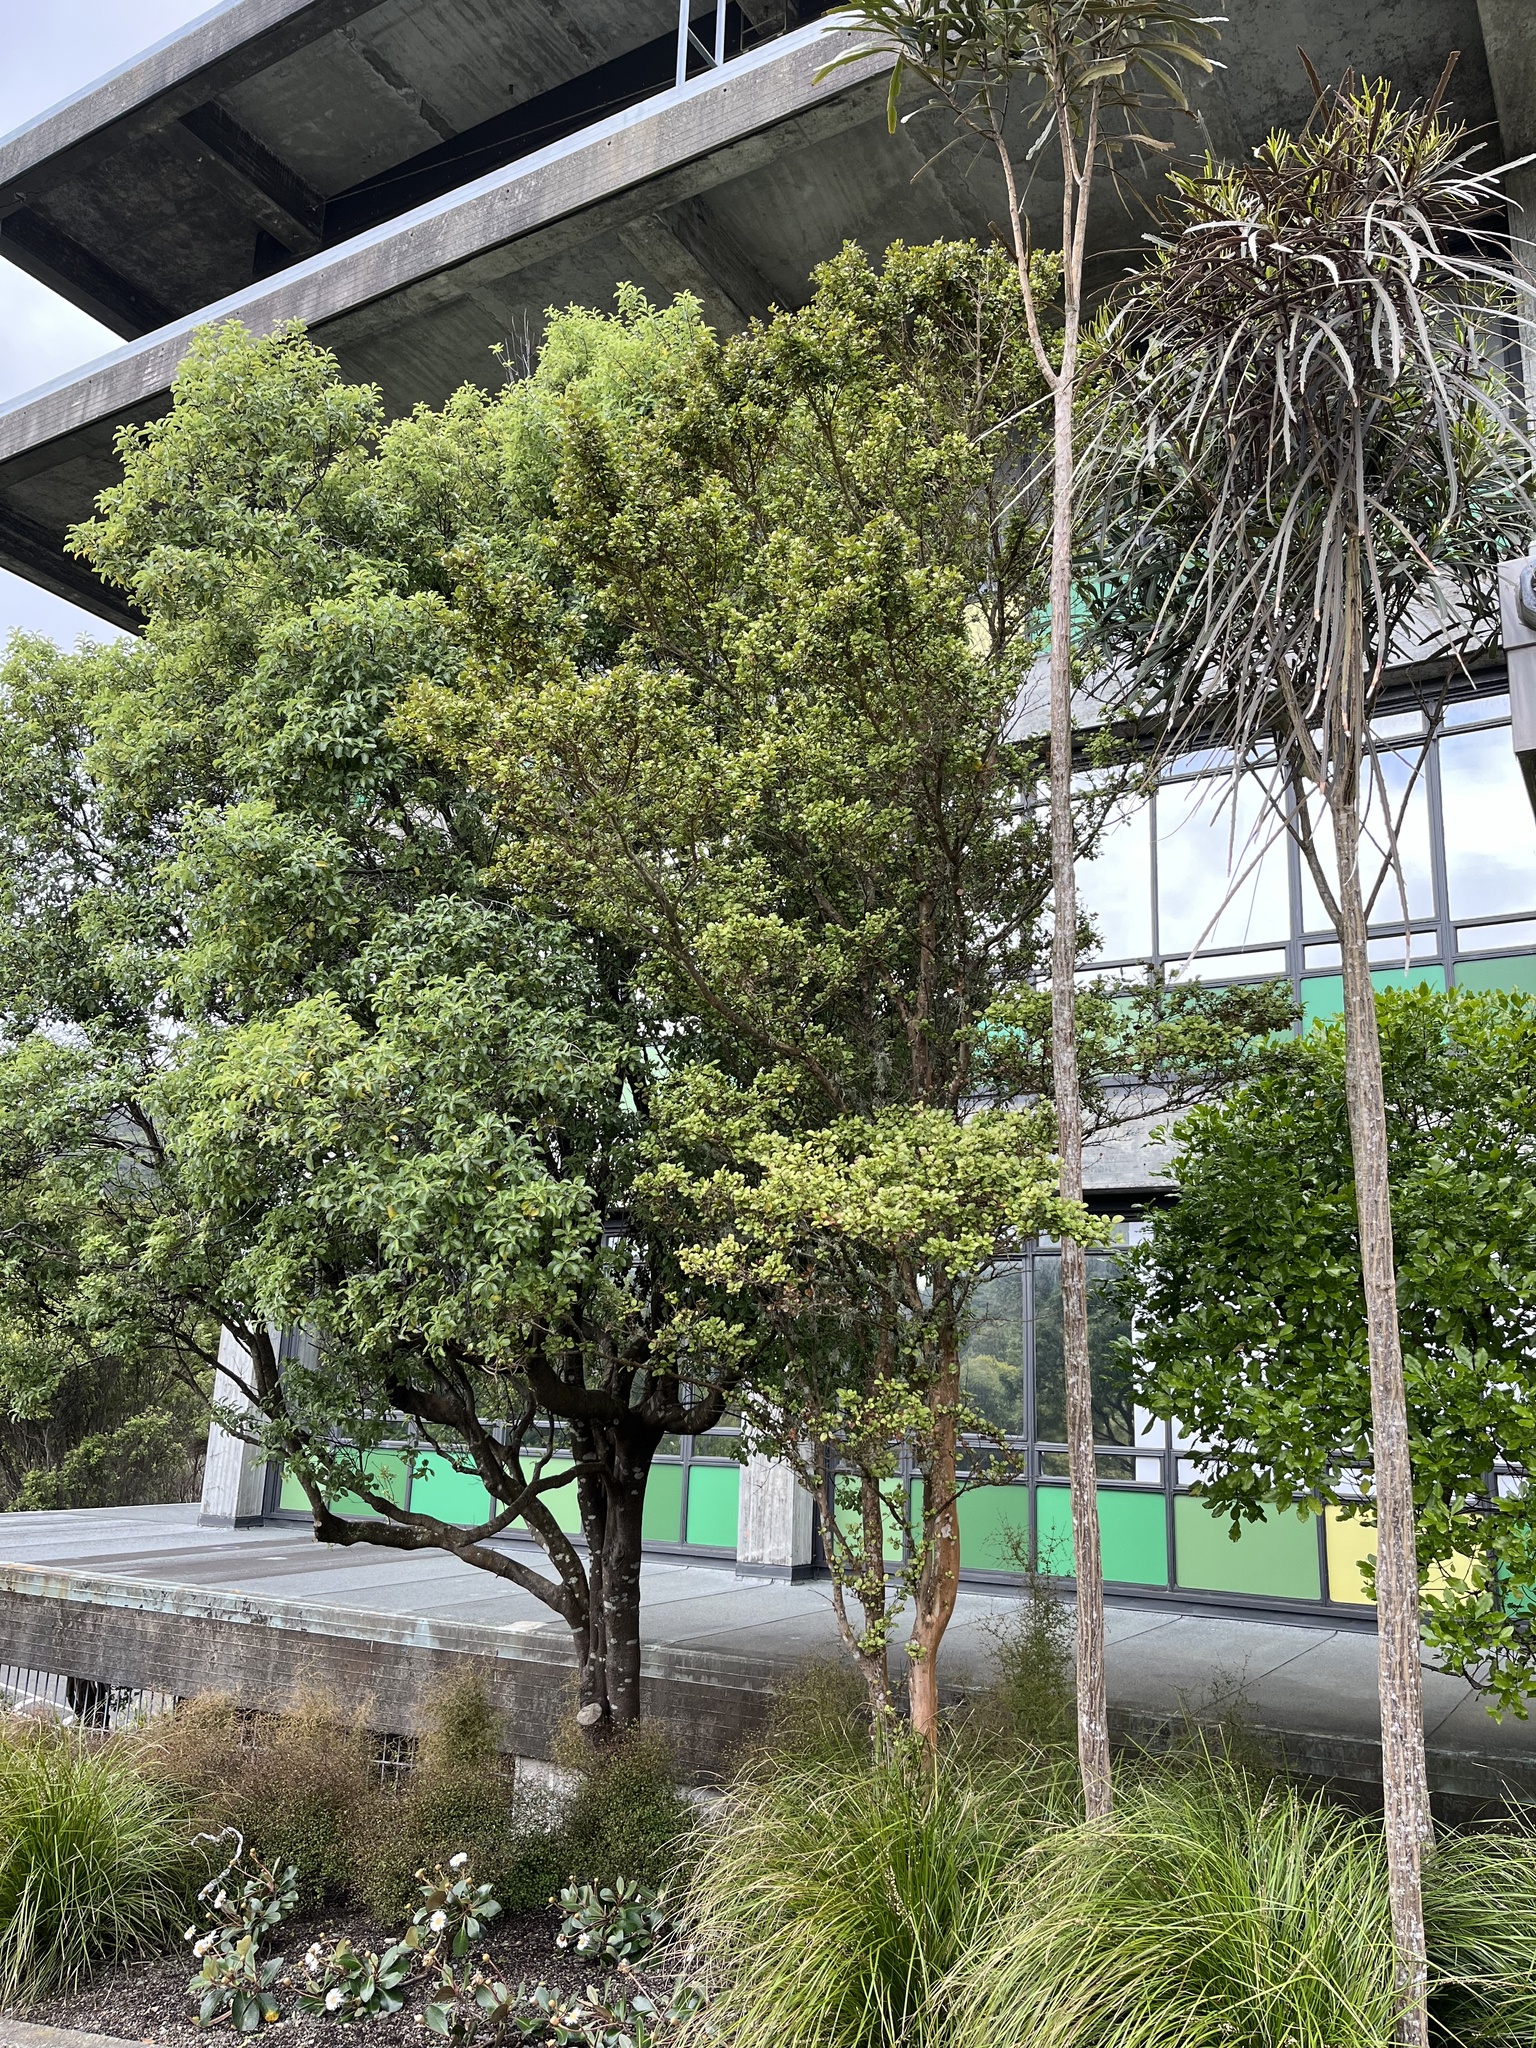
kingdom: Plantae
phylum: Tracheophyta
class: Magnoliopsida
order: Myrtales
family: Myrtaceae
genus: Lophomyrtus
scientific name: Lophomyrtus bullata
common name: Rama rama
